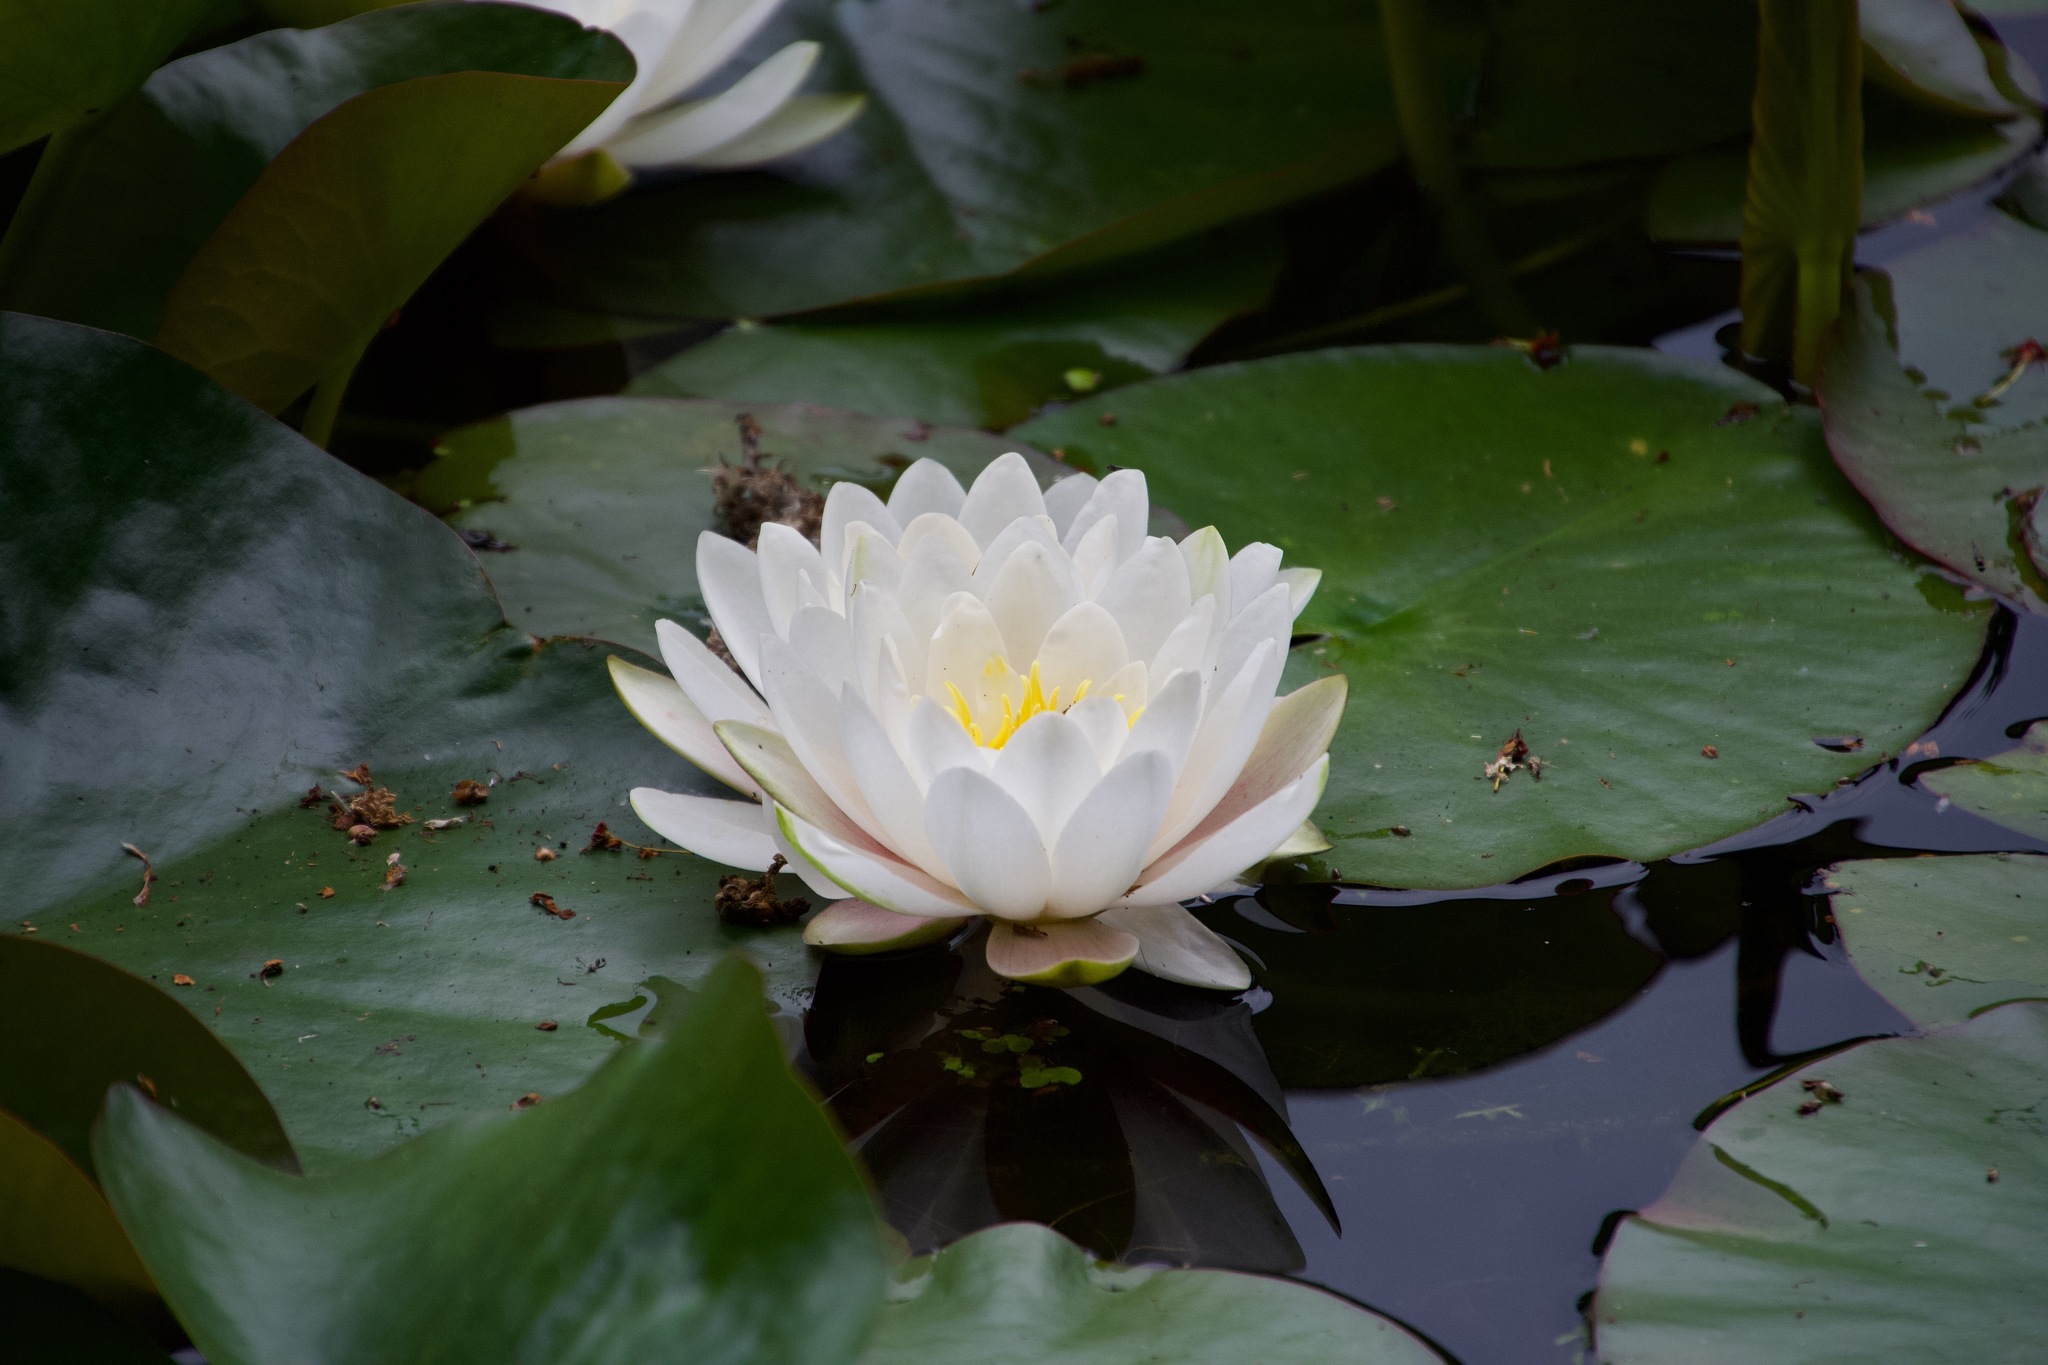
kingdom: Plantae
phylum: Tracheophyta
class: Magnoliopsida
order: Nymphaeales
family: Nymphaeaceae
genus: Nymphaea
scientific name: Nymphaea alba
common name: White water-lily
